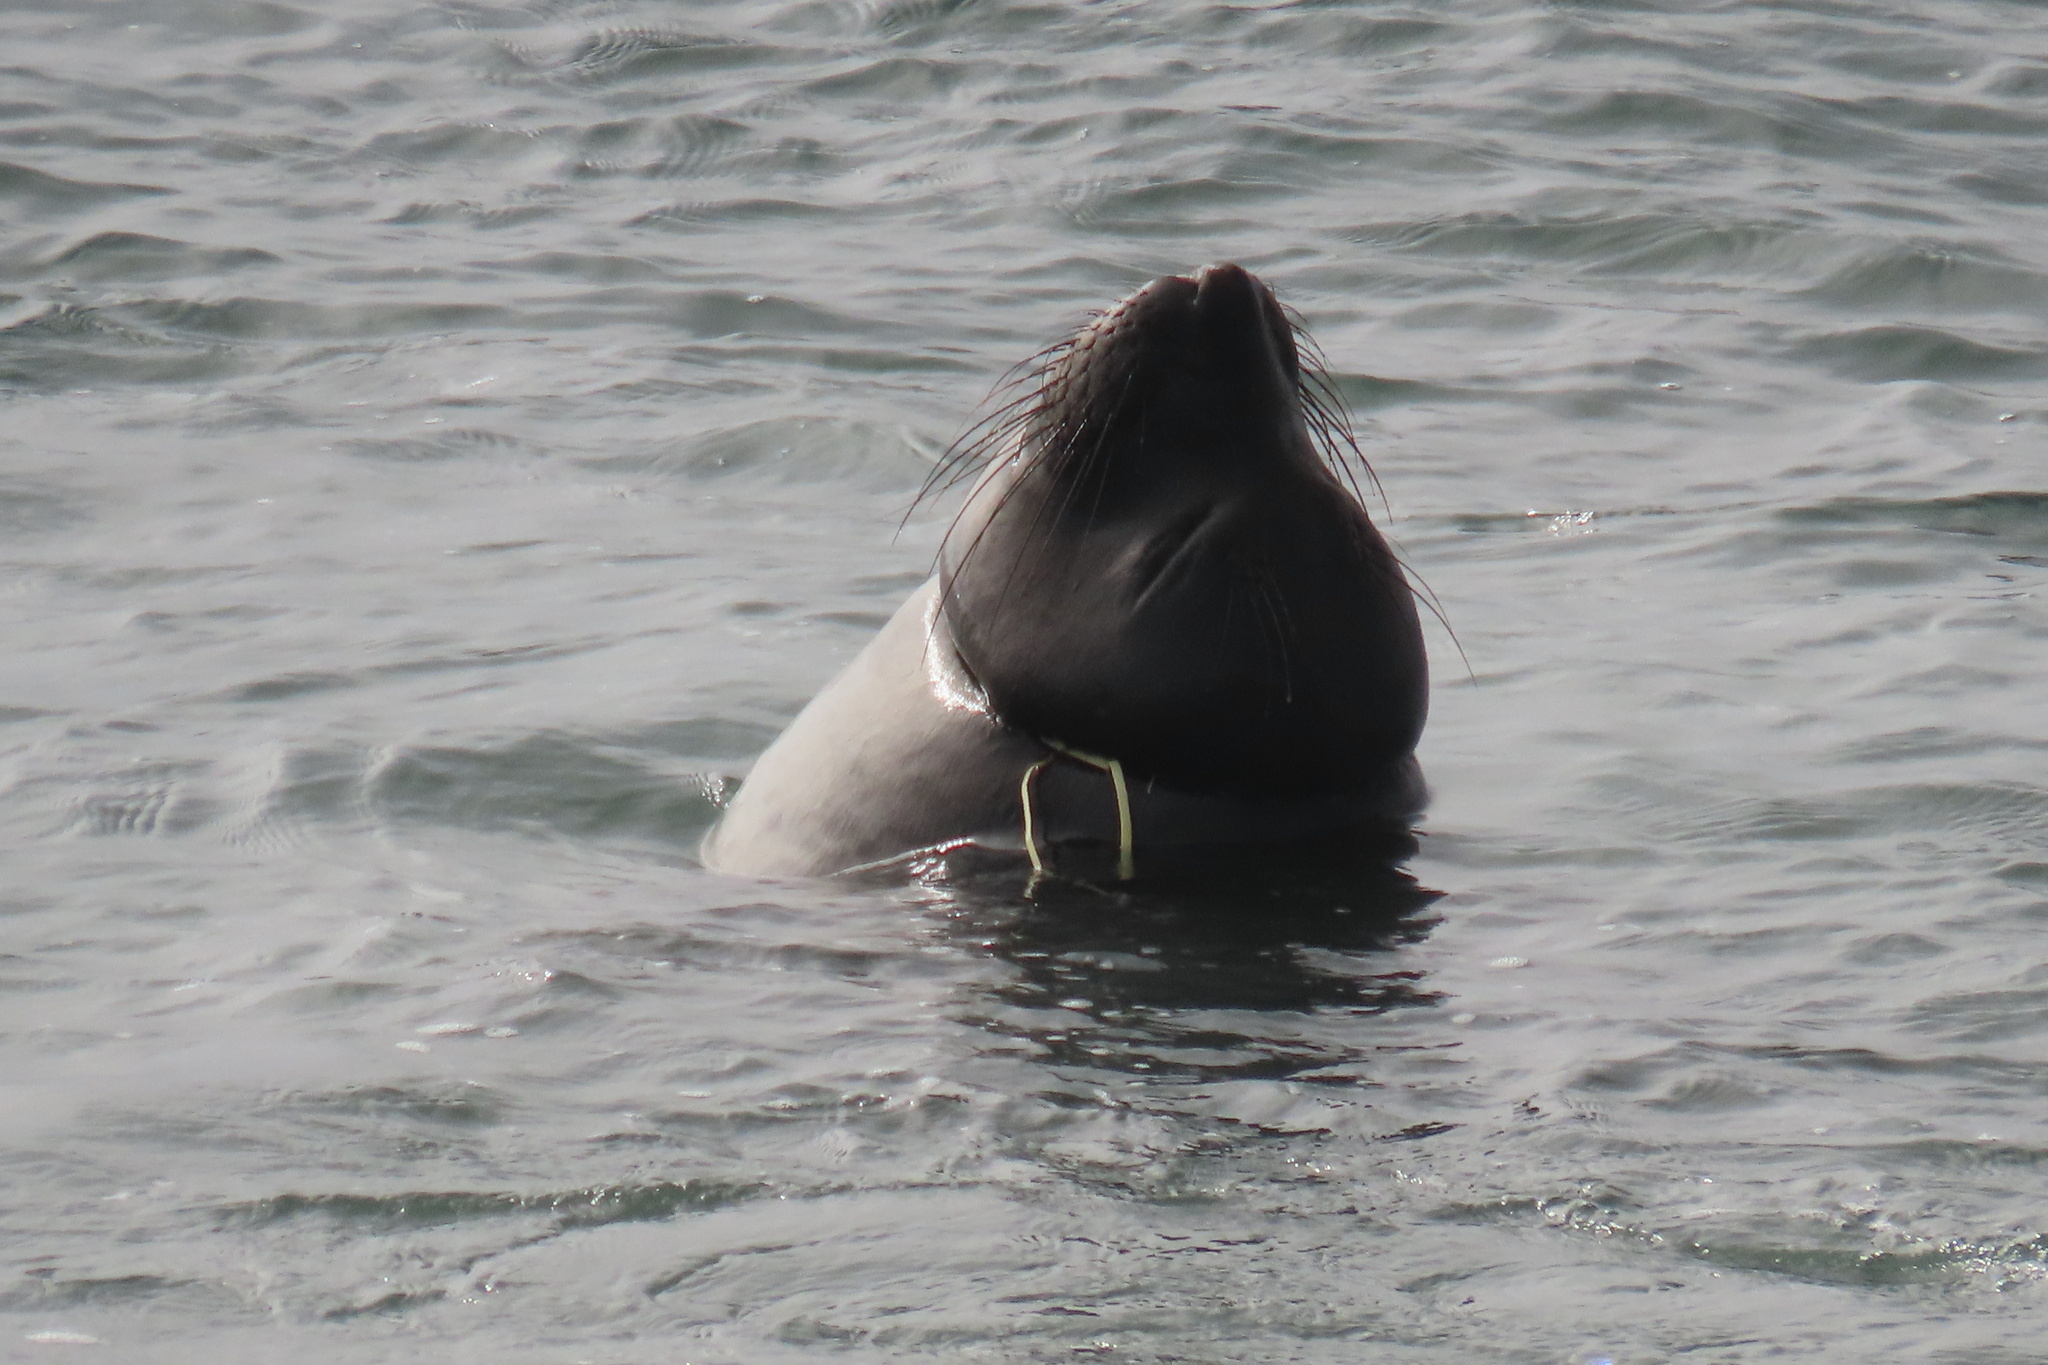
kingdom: Animalia
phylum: Chordata
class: Mammalia
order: Carnivora
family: Phocidae
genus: Mirounga
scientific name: Mirounga angustirostris
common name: Northern elephant seal
